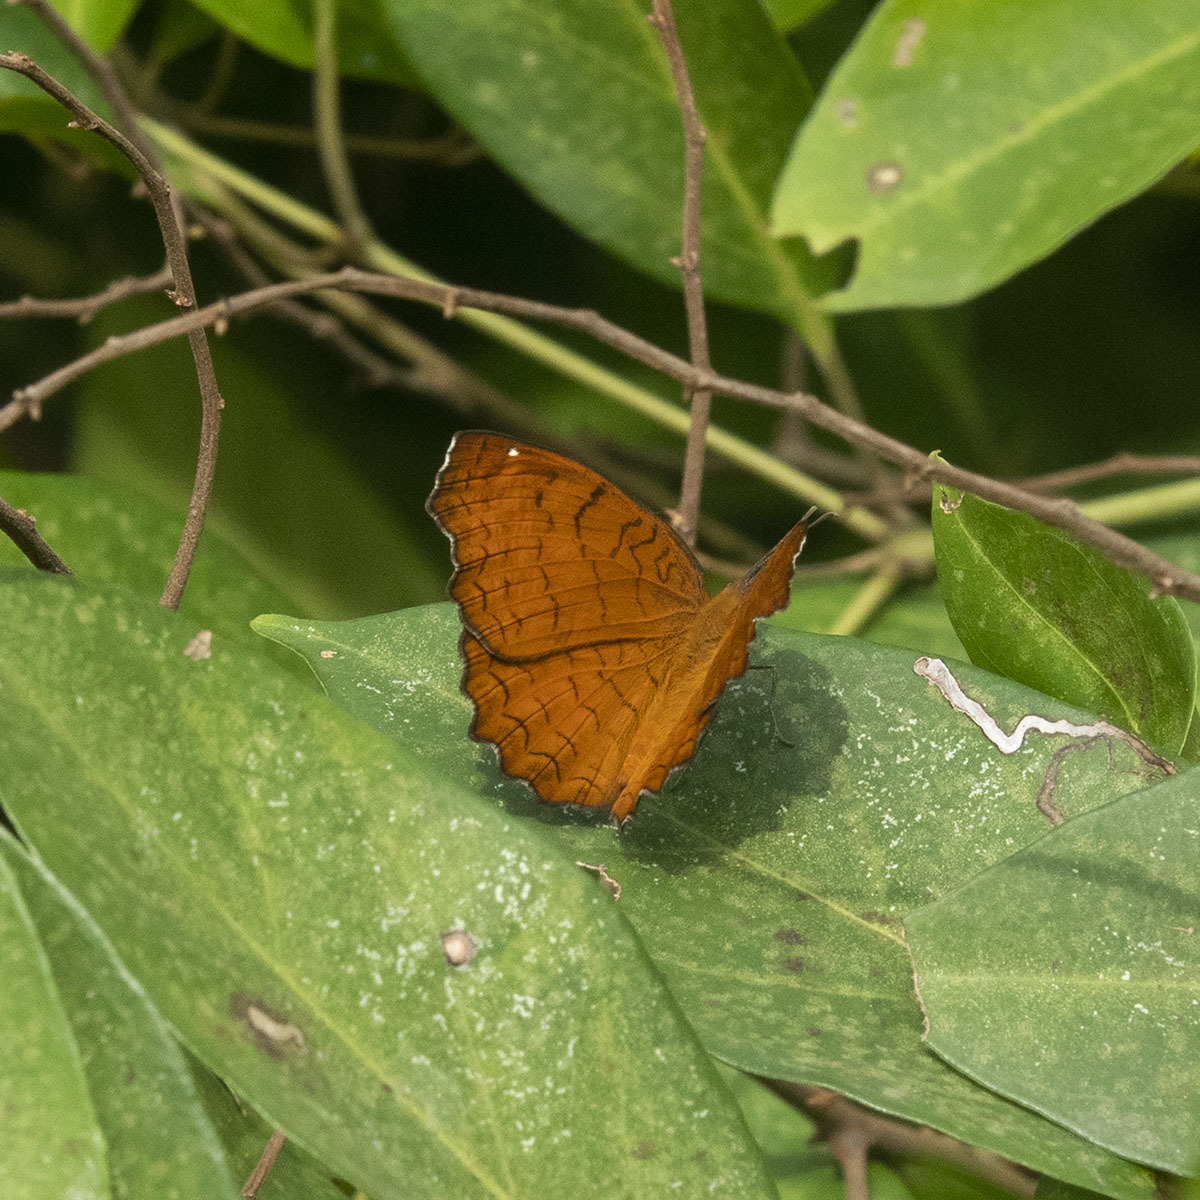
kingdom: Animalia
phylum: Arthropoda
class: Insecta
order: Lepidoptera
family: Nymphalidae
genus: Ariadne
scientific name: Ariadne ariadne
